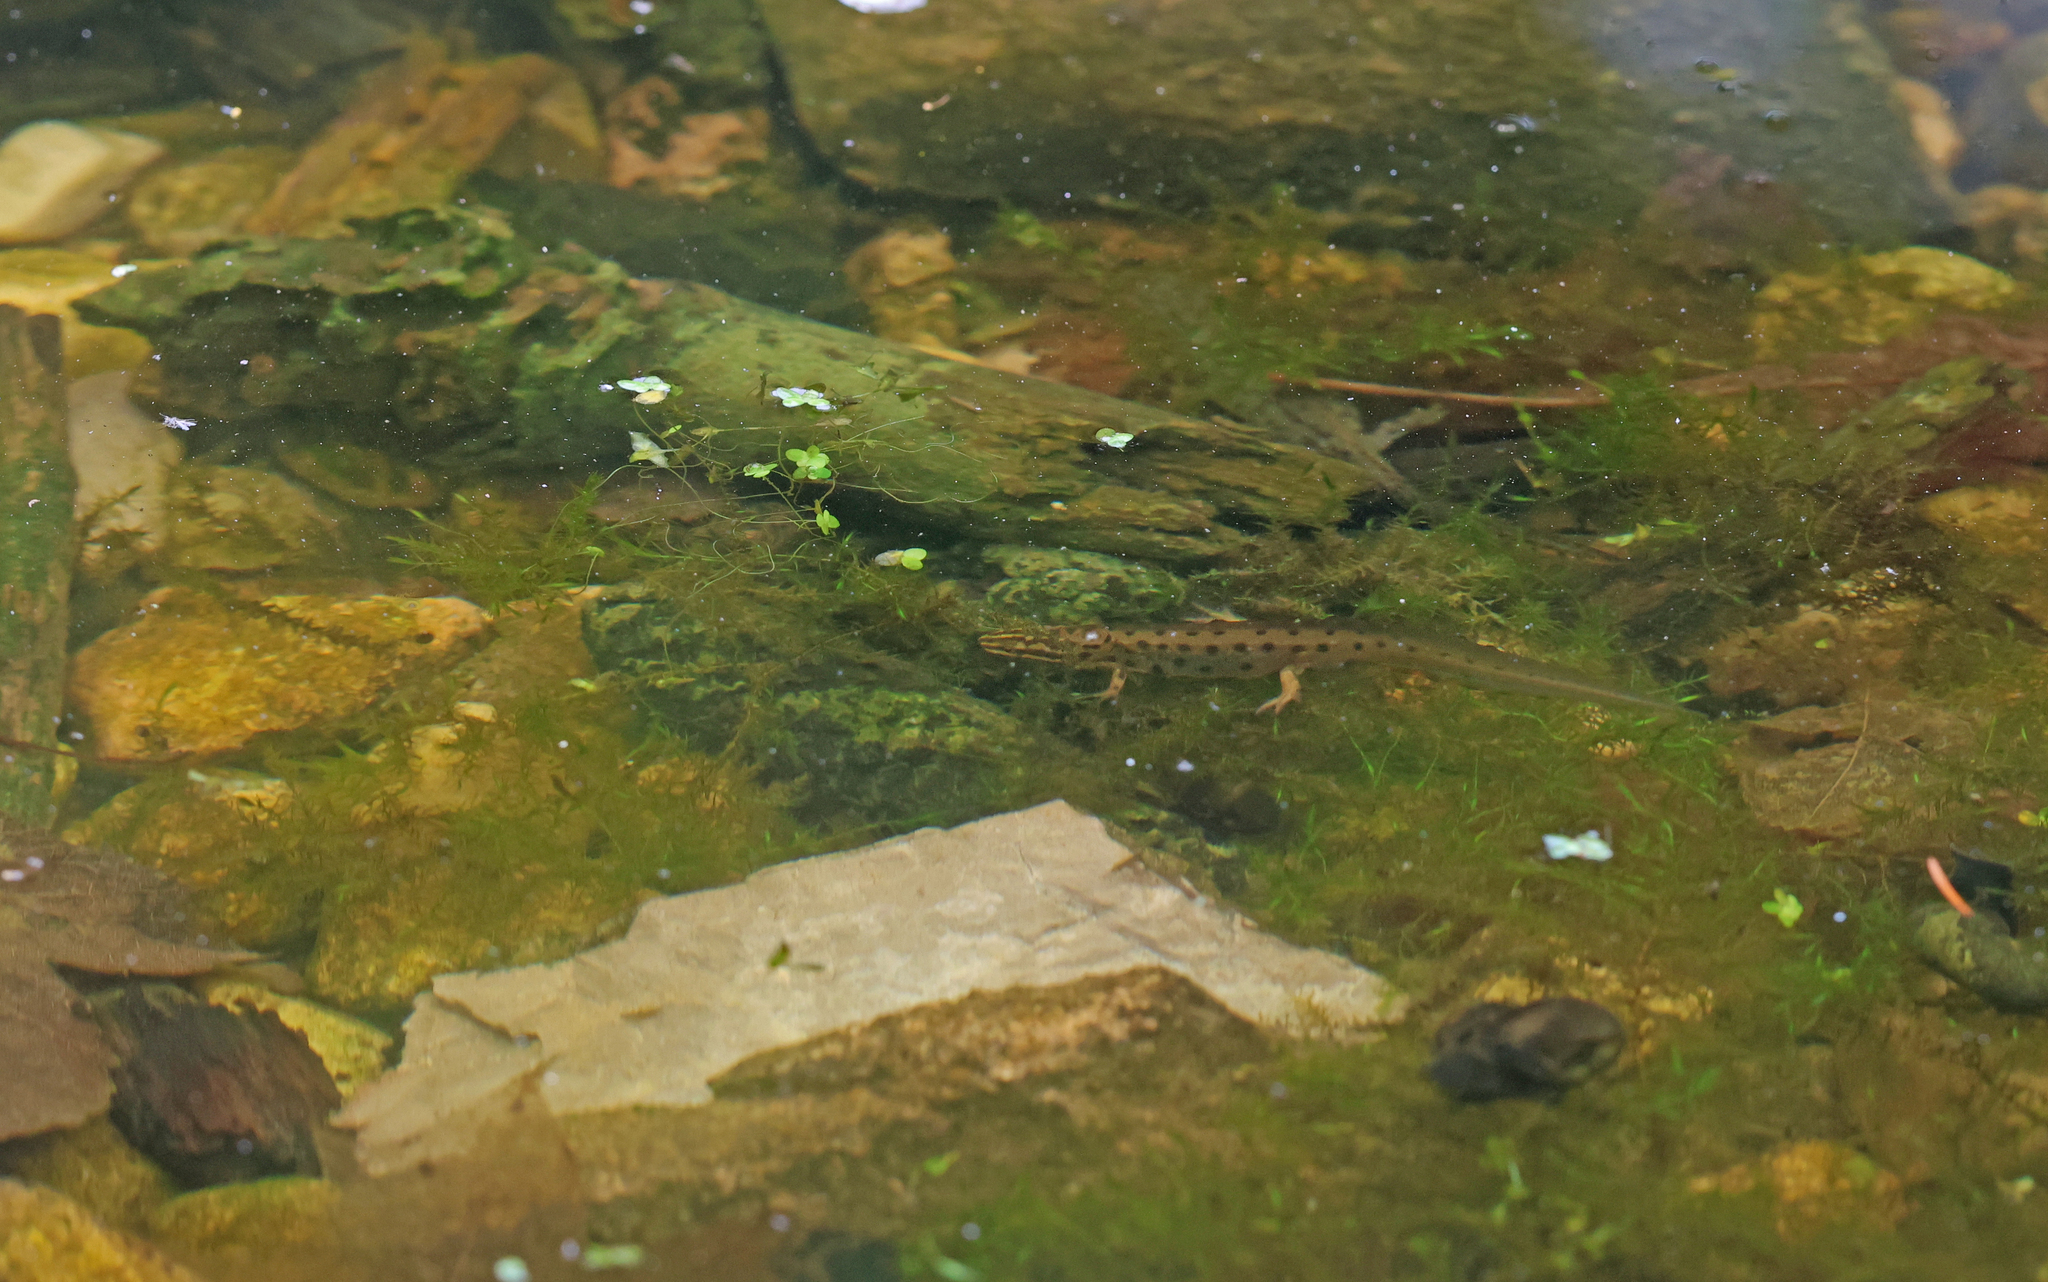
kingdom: Animalia
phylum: Chordata
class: Amphibia
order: Caudata
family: Salamandridae
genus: Lissotriton
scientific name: Lissotriton vulgaris
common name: Smooth newt
